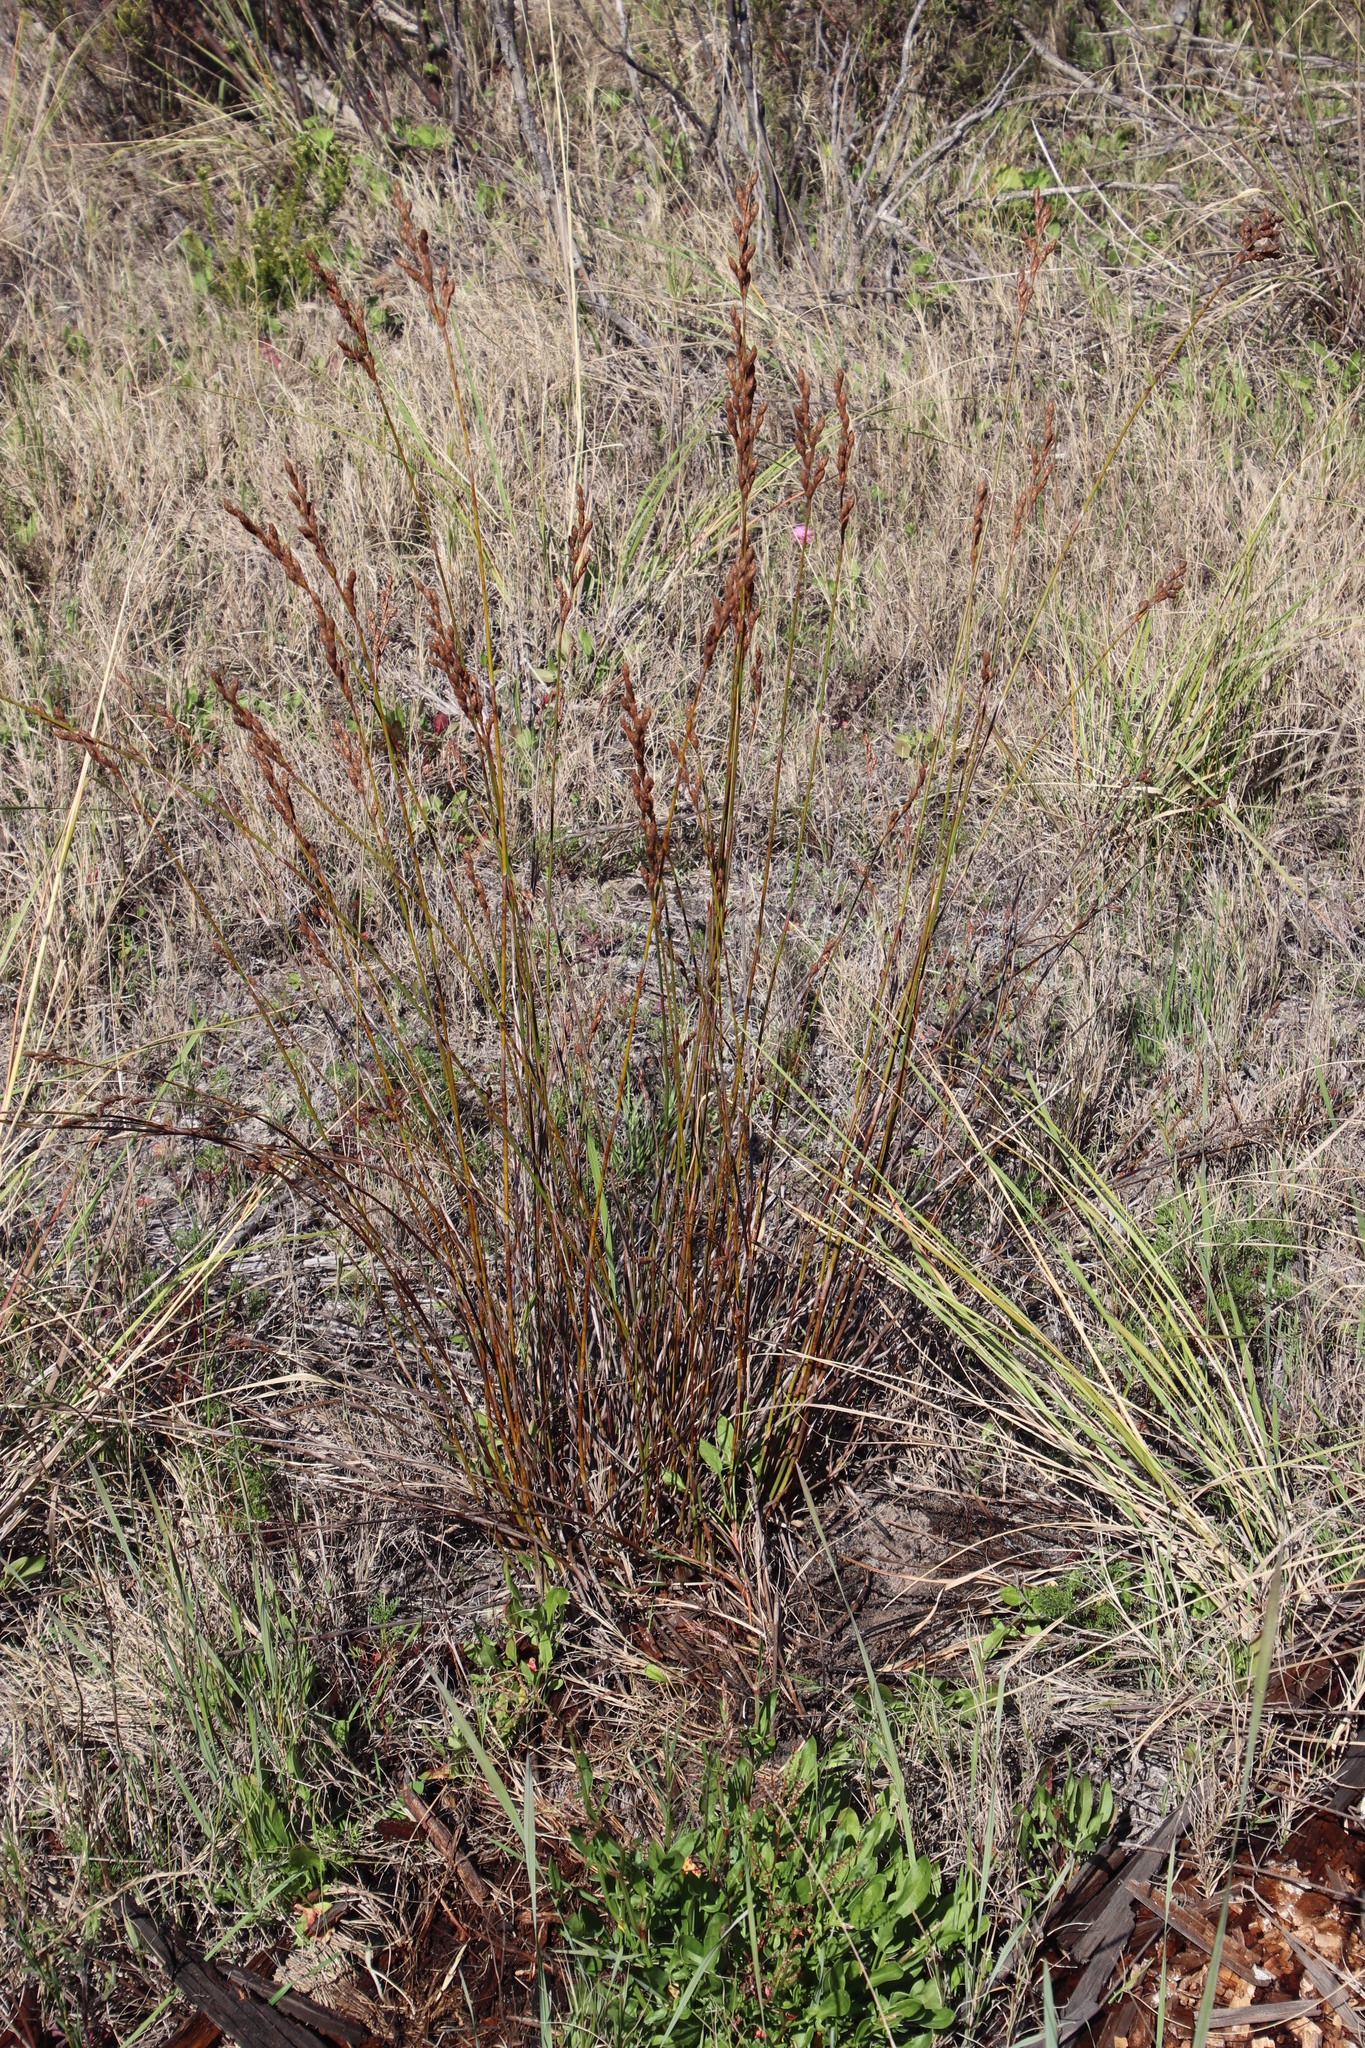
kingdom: Plantae
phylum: Tracheophyta
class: Liliopsida
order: Poales
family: Restionaceae
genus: Restio
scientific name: Restio bifurcus
